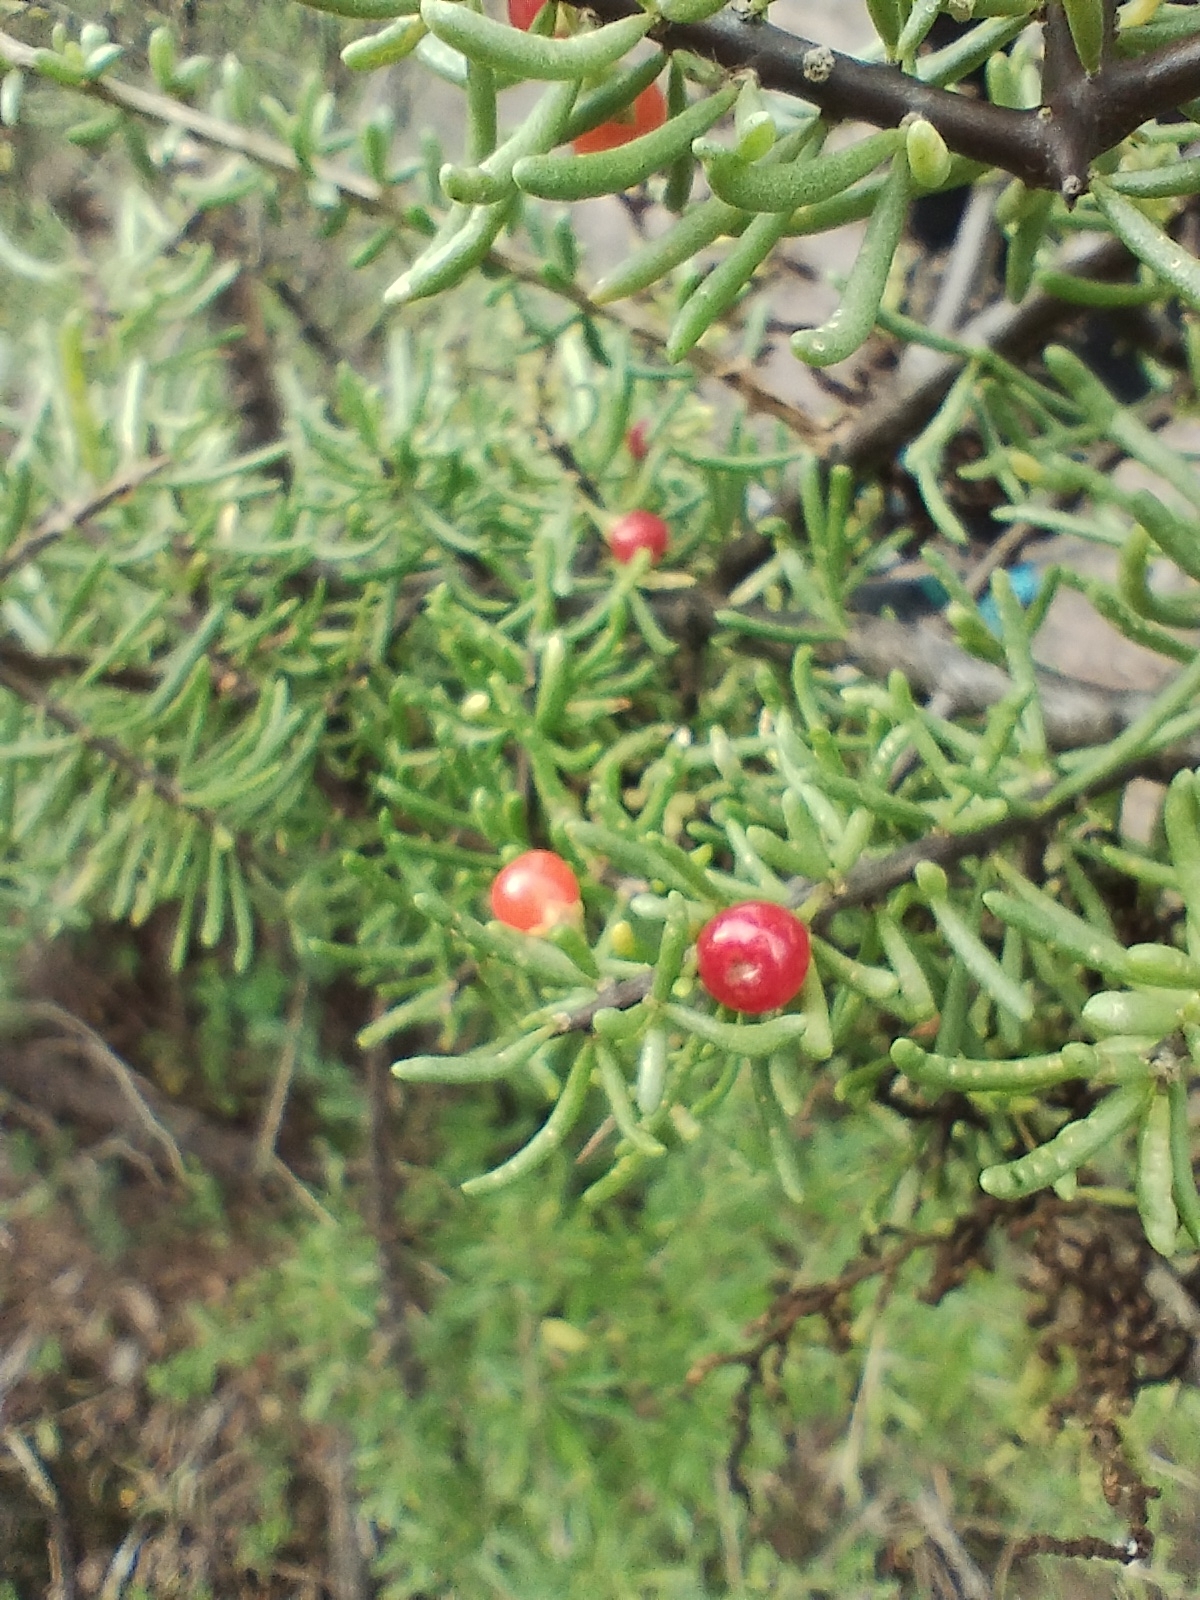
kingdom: Plantae
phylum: Tracheophyta
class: Magnoliopsida
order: Solanales
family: Solanaceae
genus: Lycium
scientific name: Lycium infaustum
